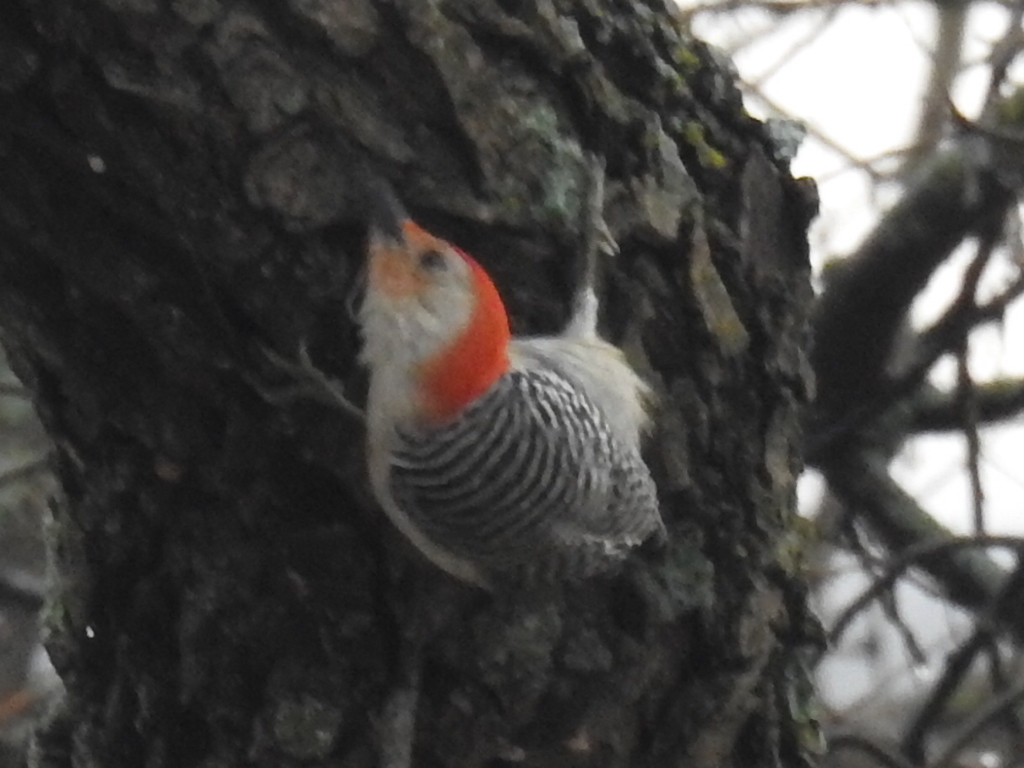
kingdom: Animalia
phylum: Chordata
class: Aves
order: Piciformes
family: Picidae
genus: Melanerpes
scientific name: Melanerpes carolinus
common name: Red-bellied woodpecker
